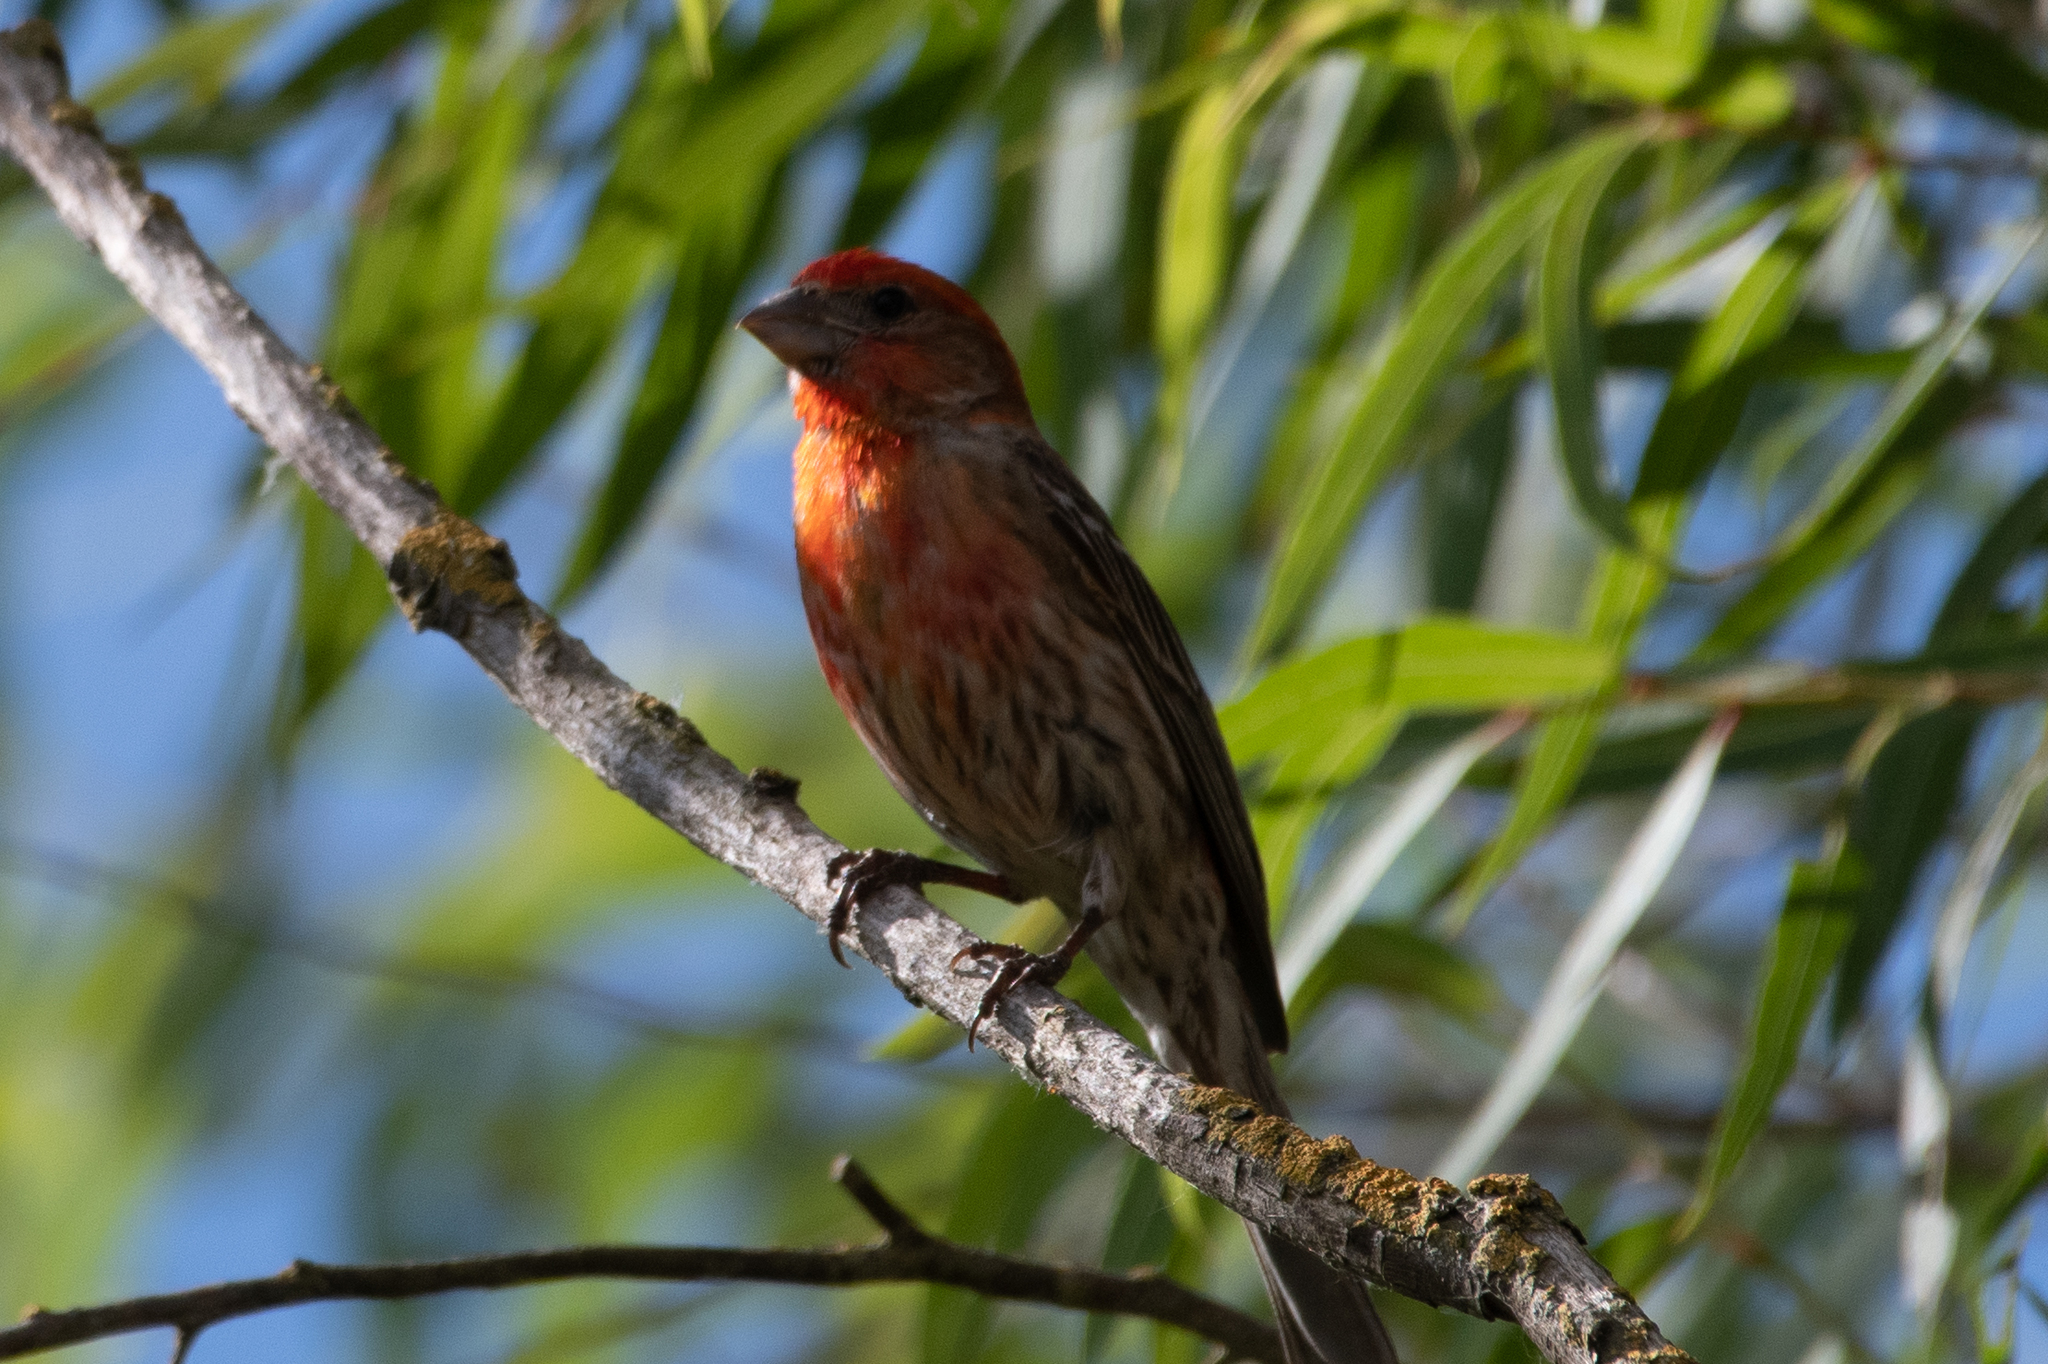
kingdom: Animalia
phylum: Chordata
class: Aves
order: Passeriformes
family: Fringillidae
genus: Haemorhous
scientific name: Haemorhous mexicanus
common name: House finch
